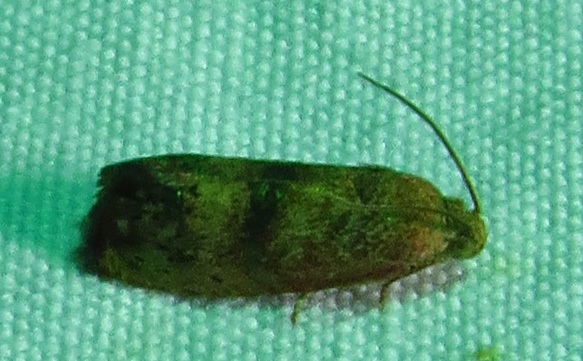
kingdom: Animalia
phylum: Arthropoda
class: Insecta
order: Lepidoptera
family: Tortricidae
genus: Cydia
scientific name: Cydia latiferreana
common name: Filbertworm moth
